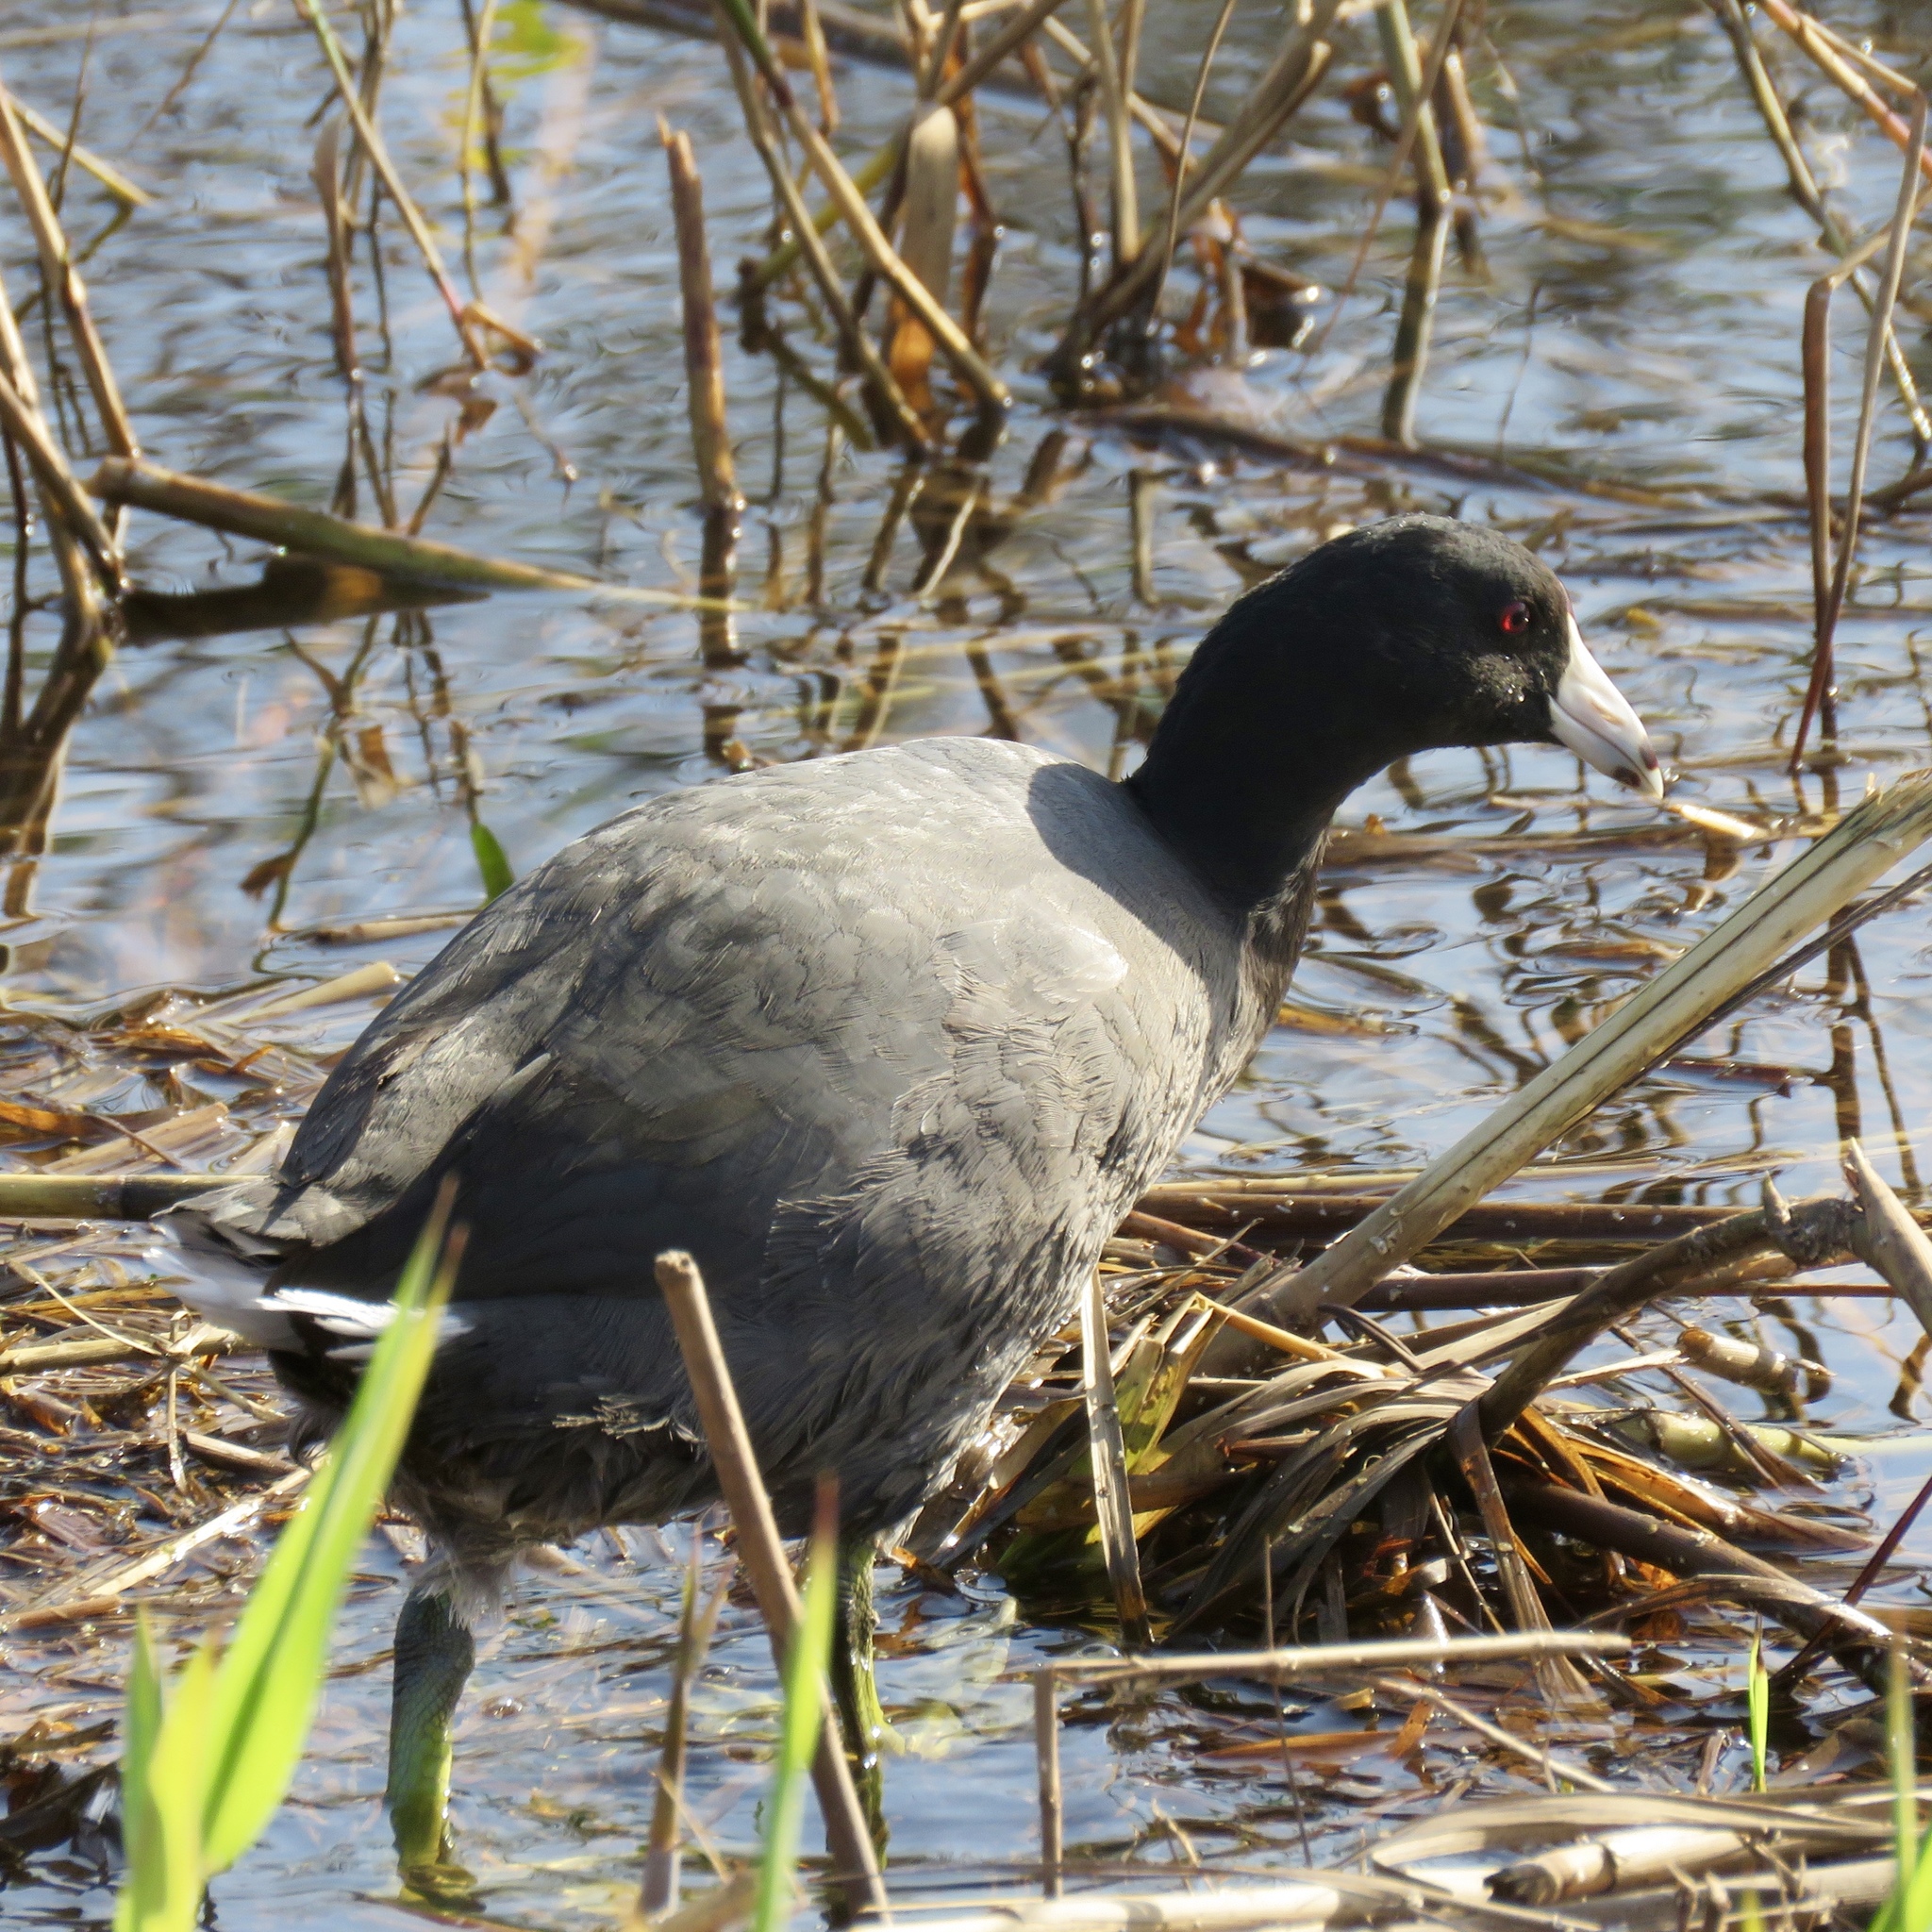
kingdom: Animalia
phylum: Chordata
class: Aves
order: Gruiformes
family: Rallidae
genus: Fulica
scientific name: Fulica americana
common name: American coot
